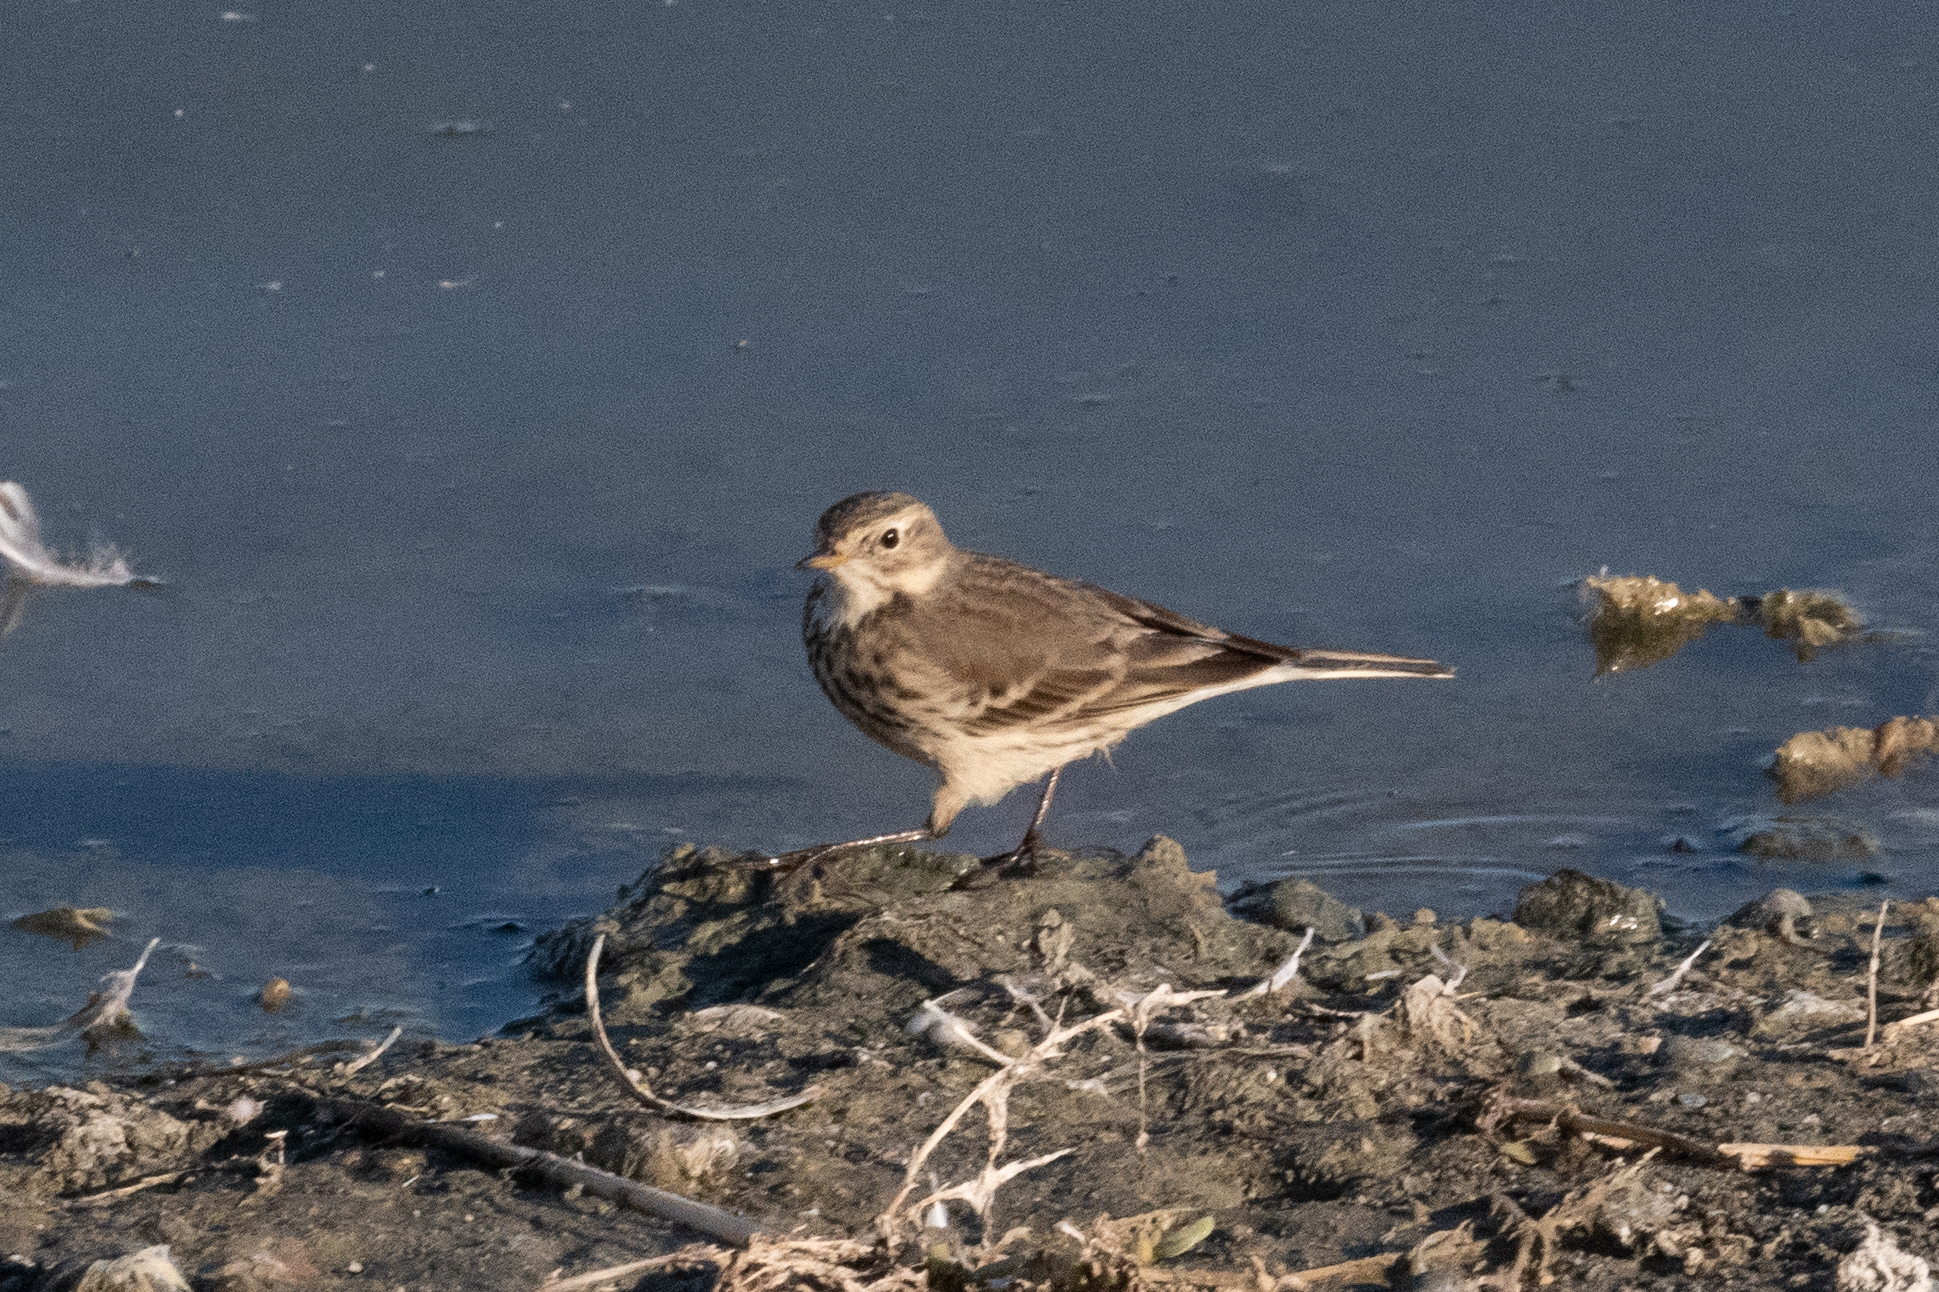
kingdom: Animalia
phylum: Chordata
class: Aves
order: Passeriformes
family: Motacillidae
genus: Anthus
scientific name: Anthus rubescens
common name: Buff-bellied pipit
